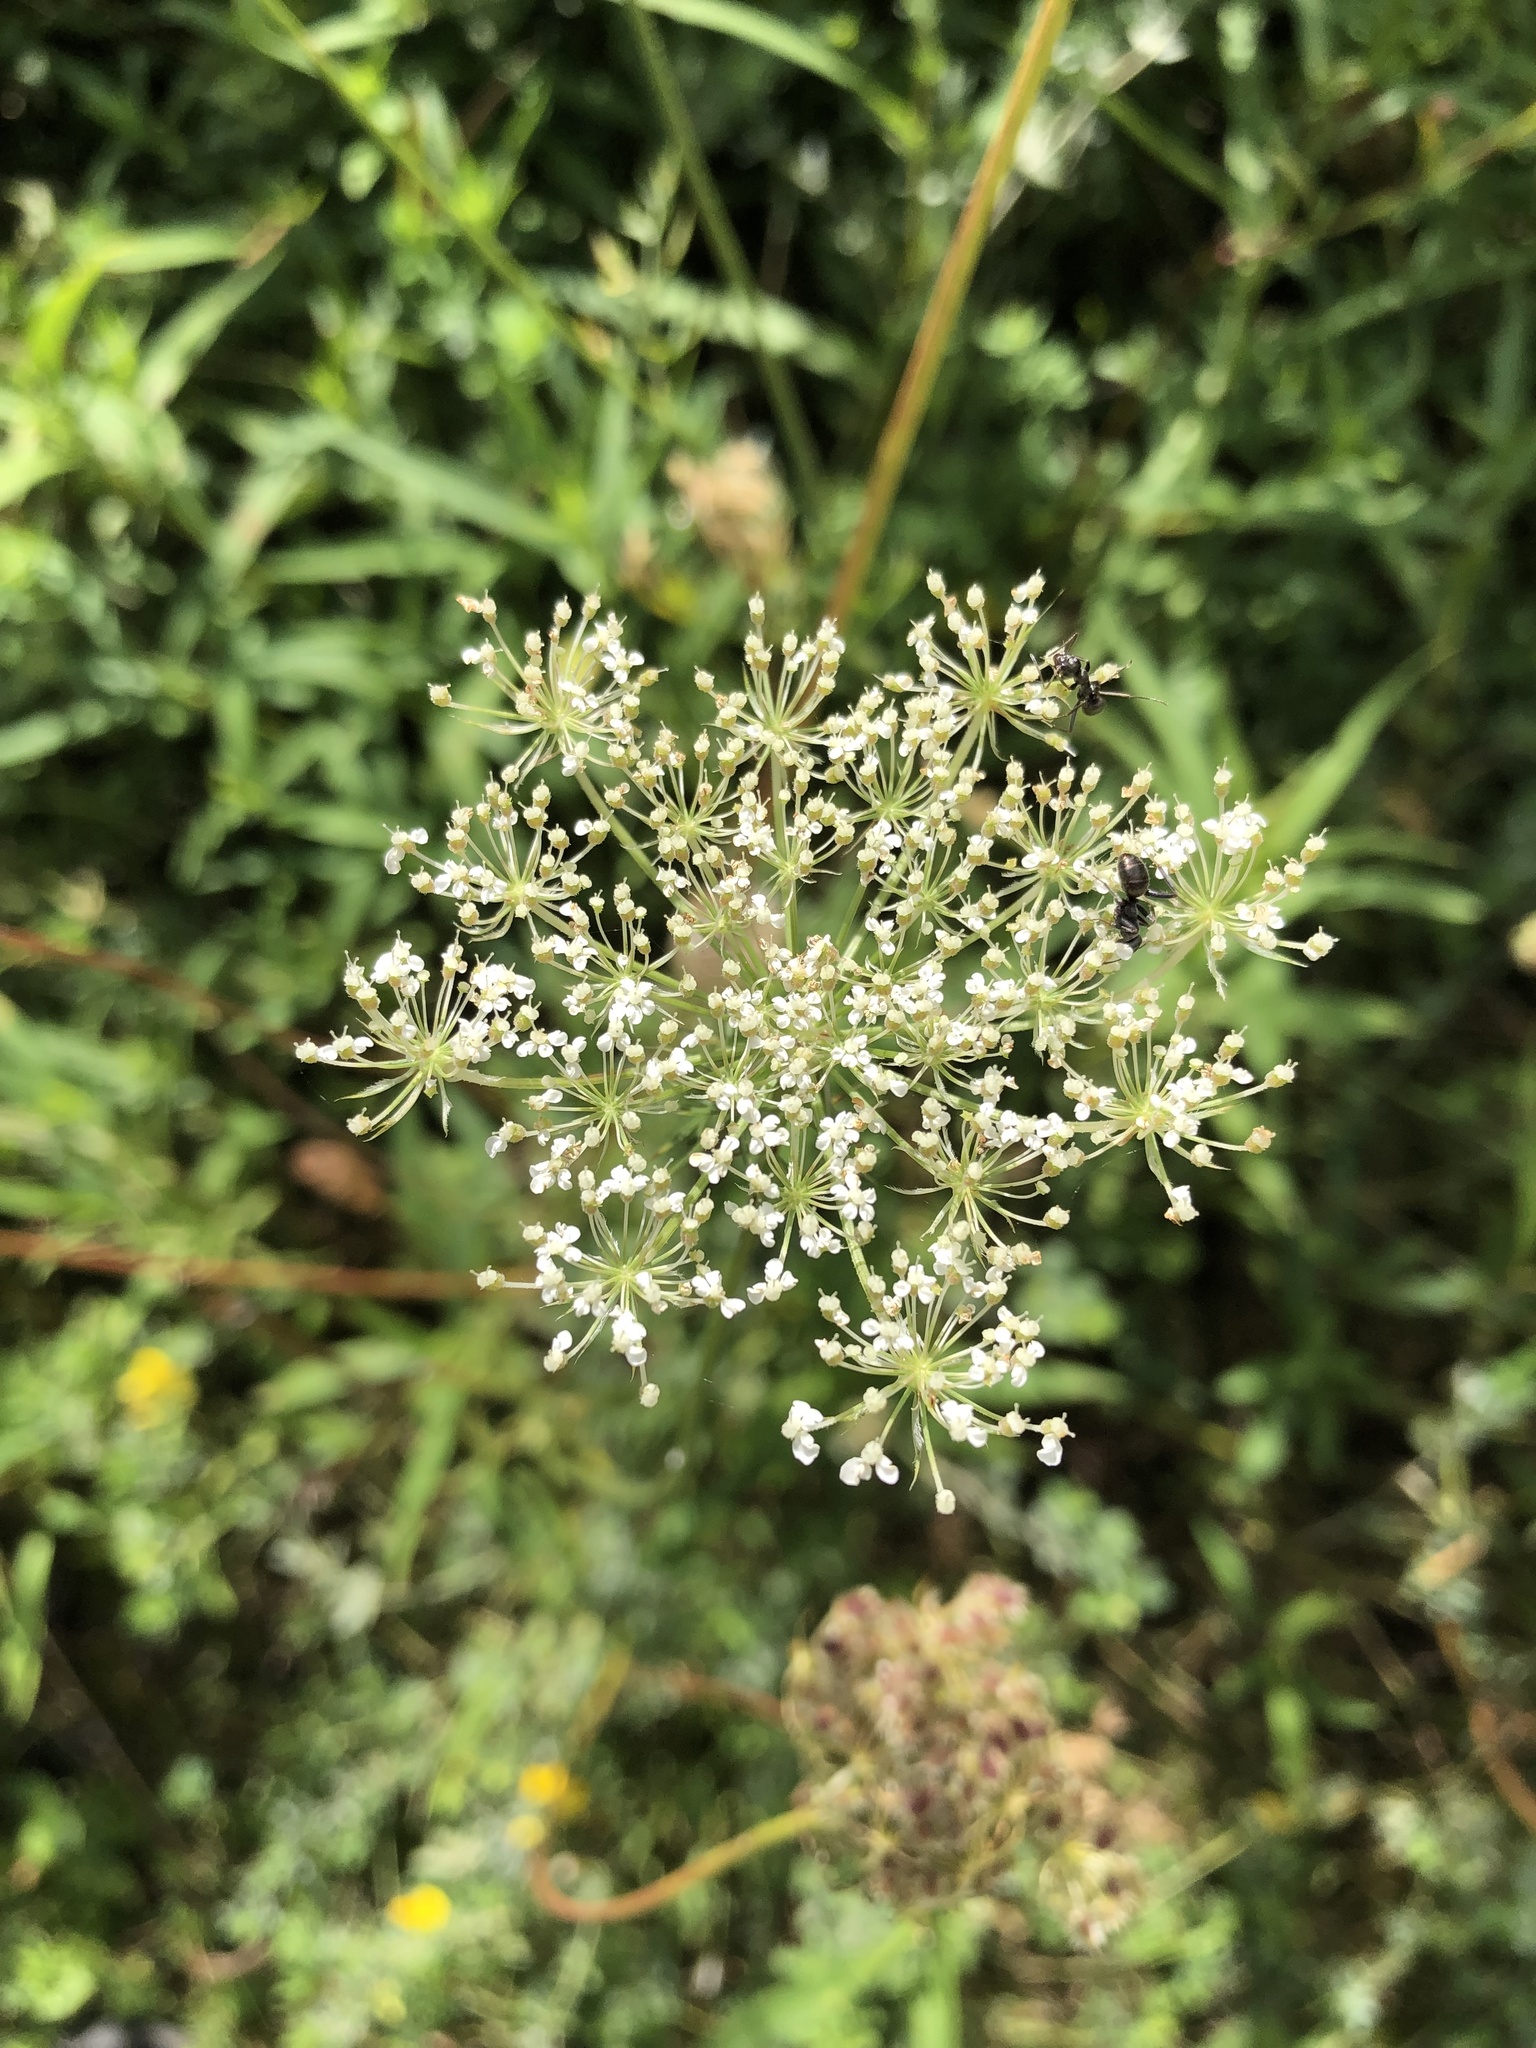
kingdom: Plantae
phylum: Tracheophyta
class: Magnoliopsida
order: Apiales
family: Apiaceae
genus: Daucus
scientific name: Daucus carota
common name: Wild carrot
